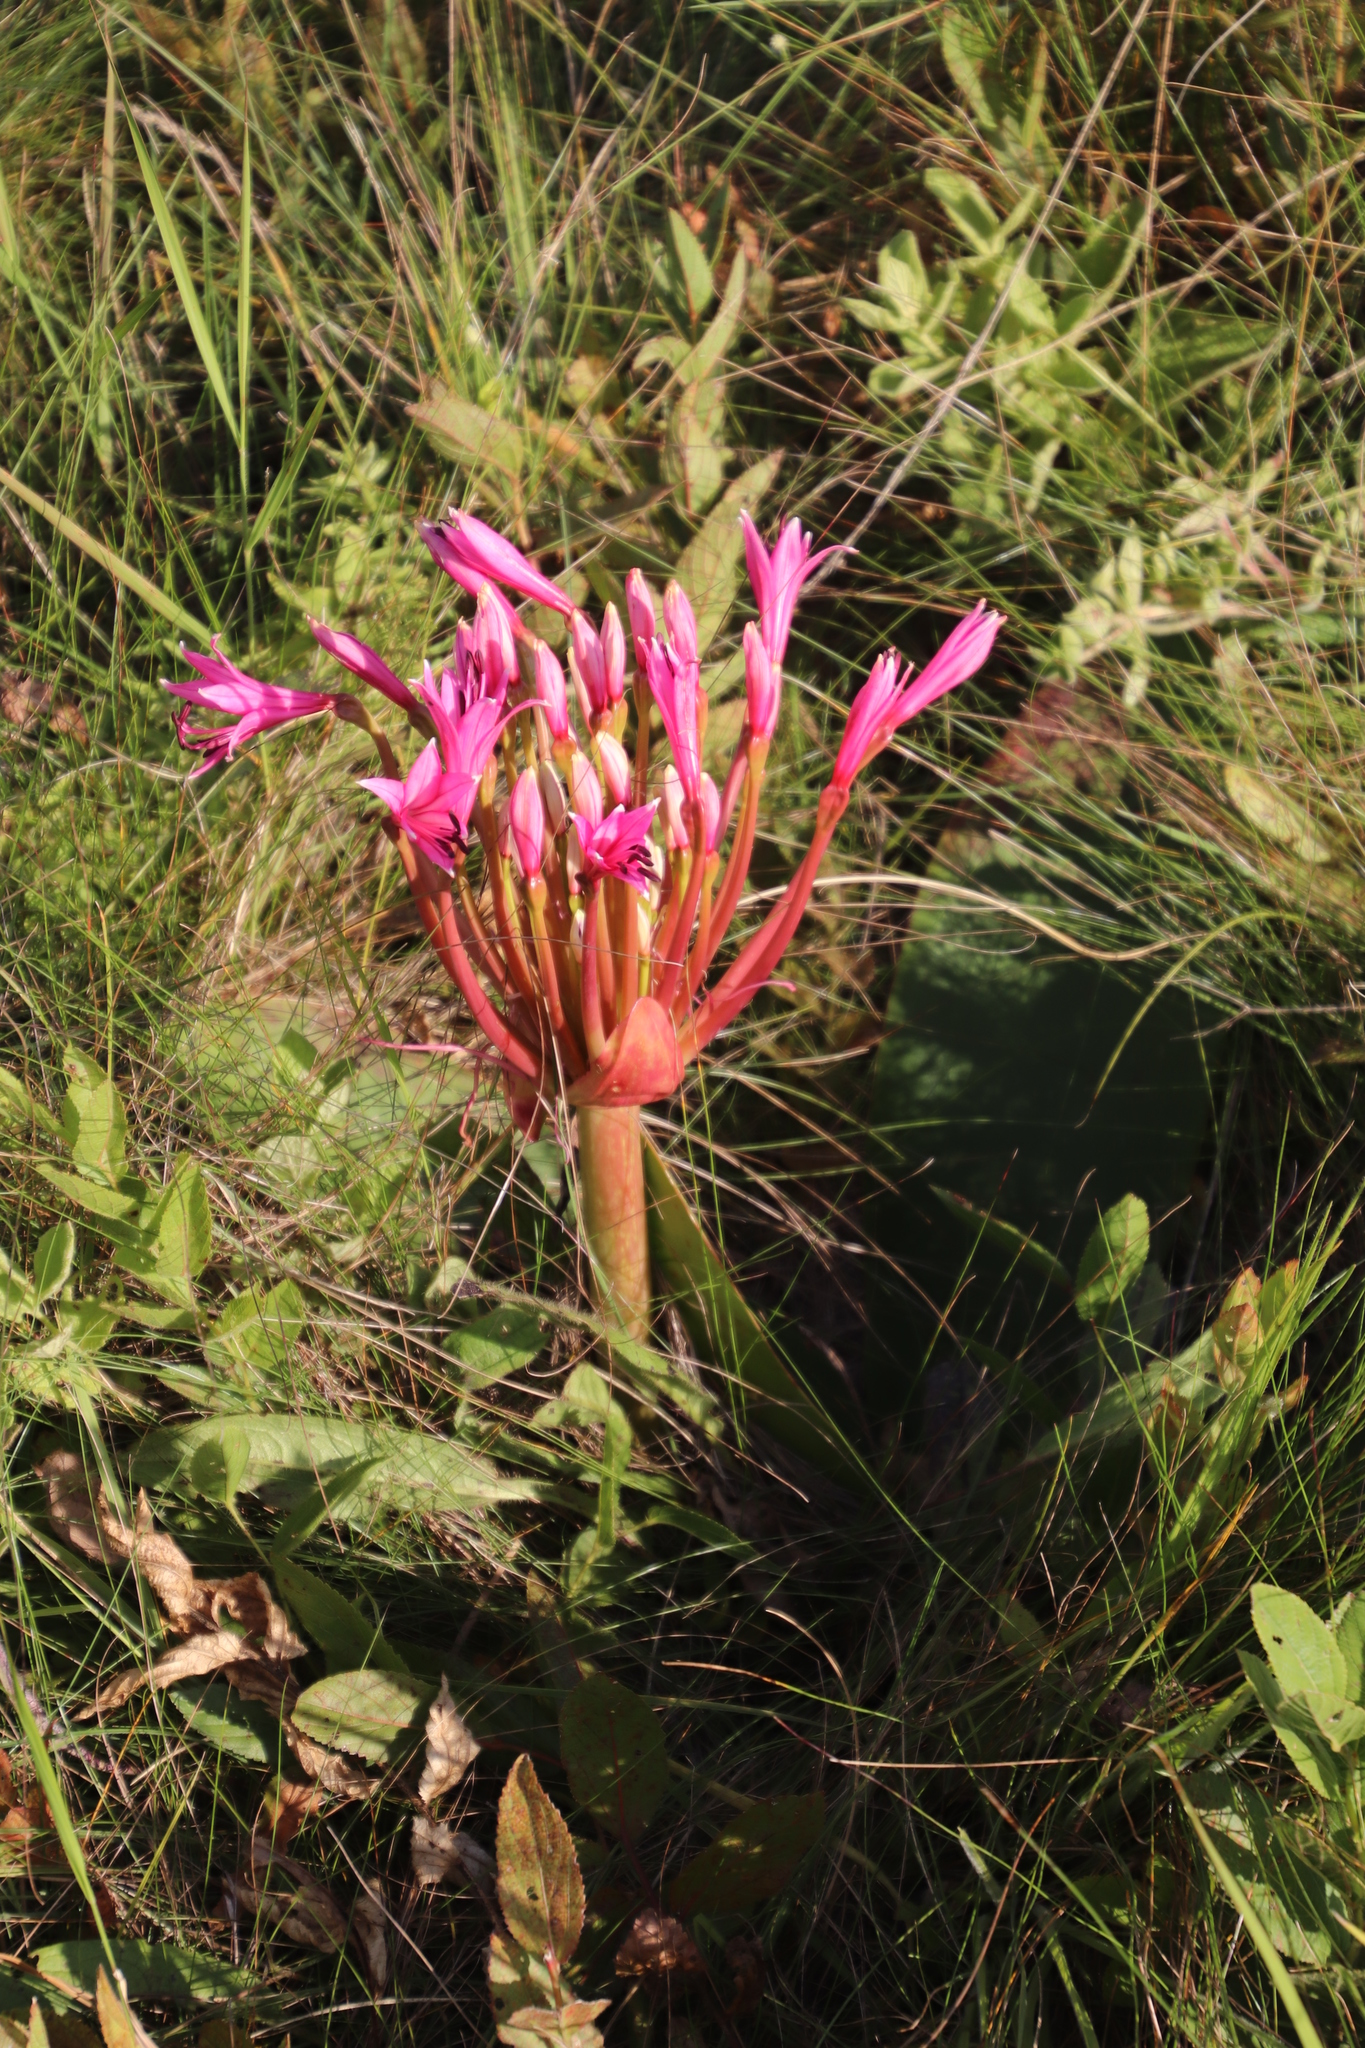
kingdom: Plantae
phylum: Tracheophyta
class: Liliopsida
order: Asparagales
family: Amaryllidaceae
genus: Brunsvigia
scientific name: Brunsvigia radulosa
